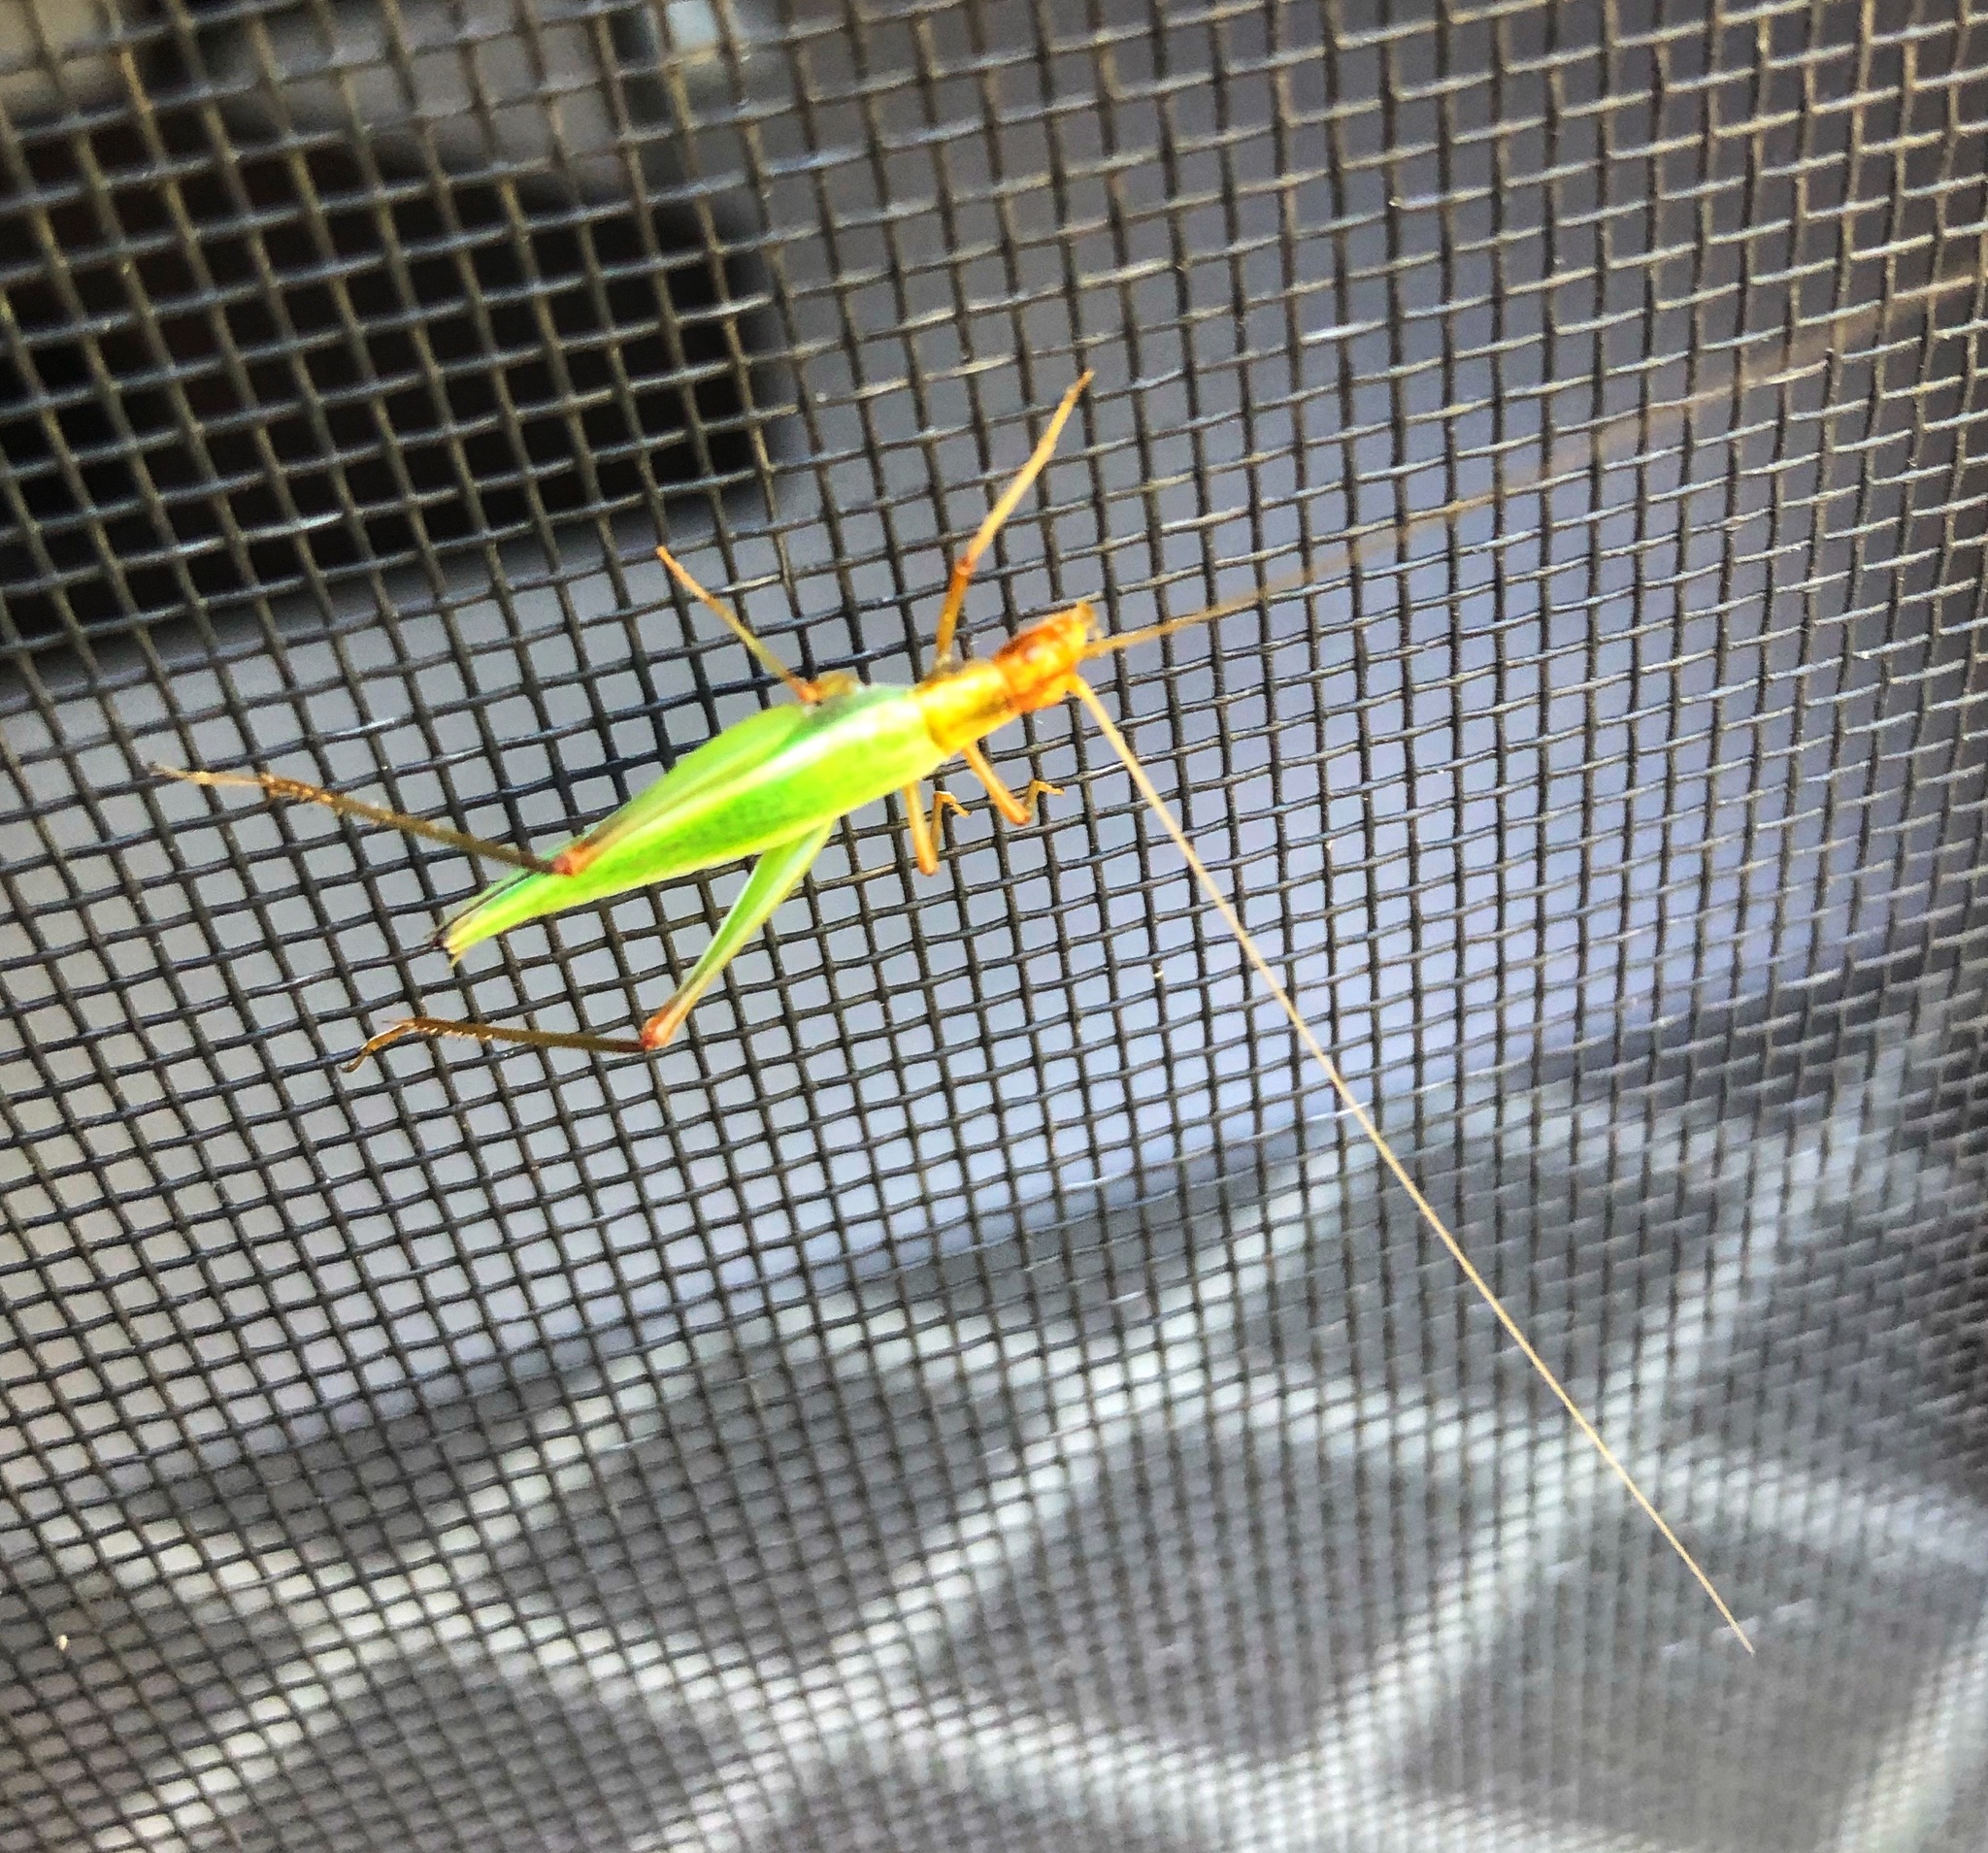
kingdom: Animalia
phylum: Arthropoda
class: Insecta
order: Orthoptera
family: Gryllidae
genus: Oecanthus
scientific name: Oecanthus pini
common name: Pine tree cricket
